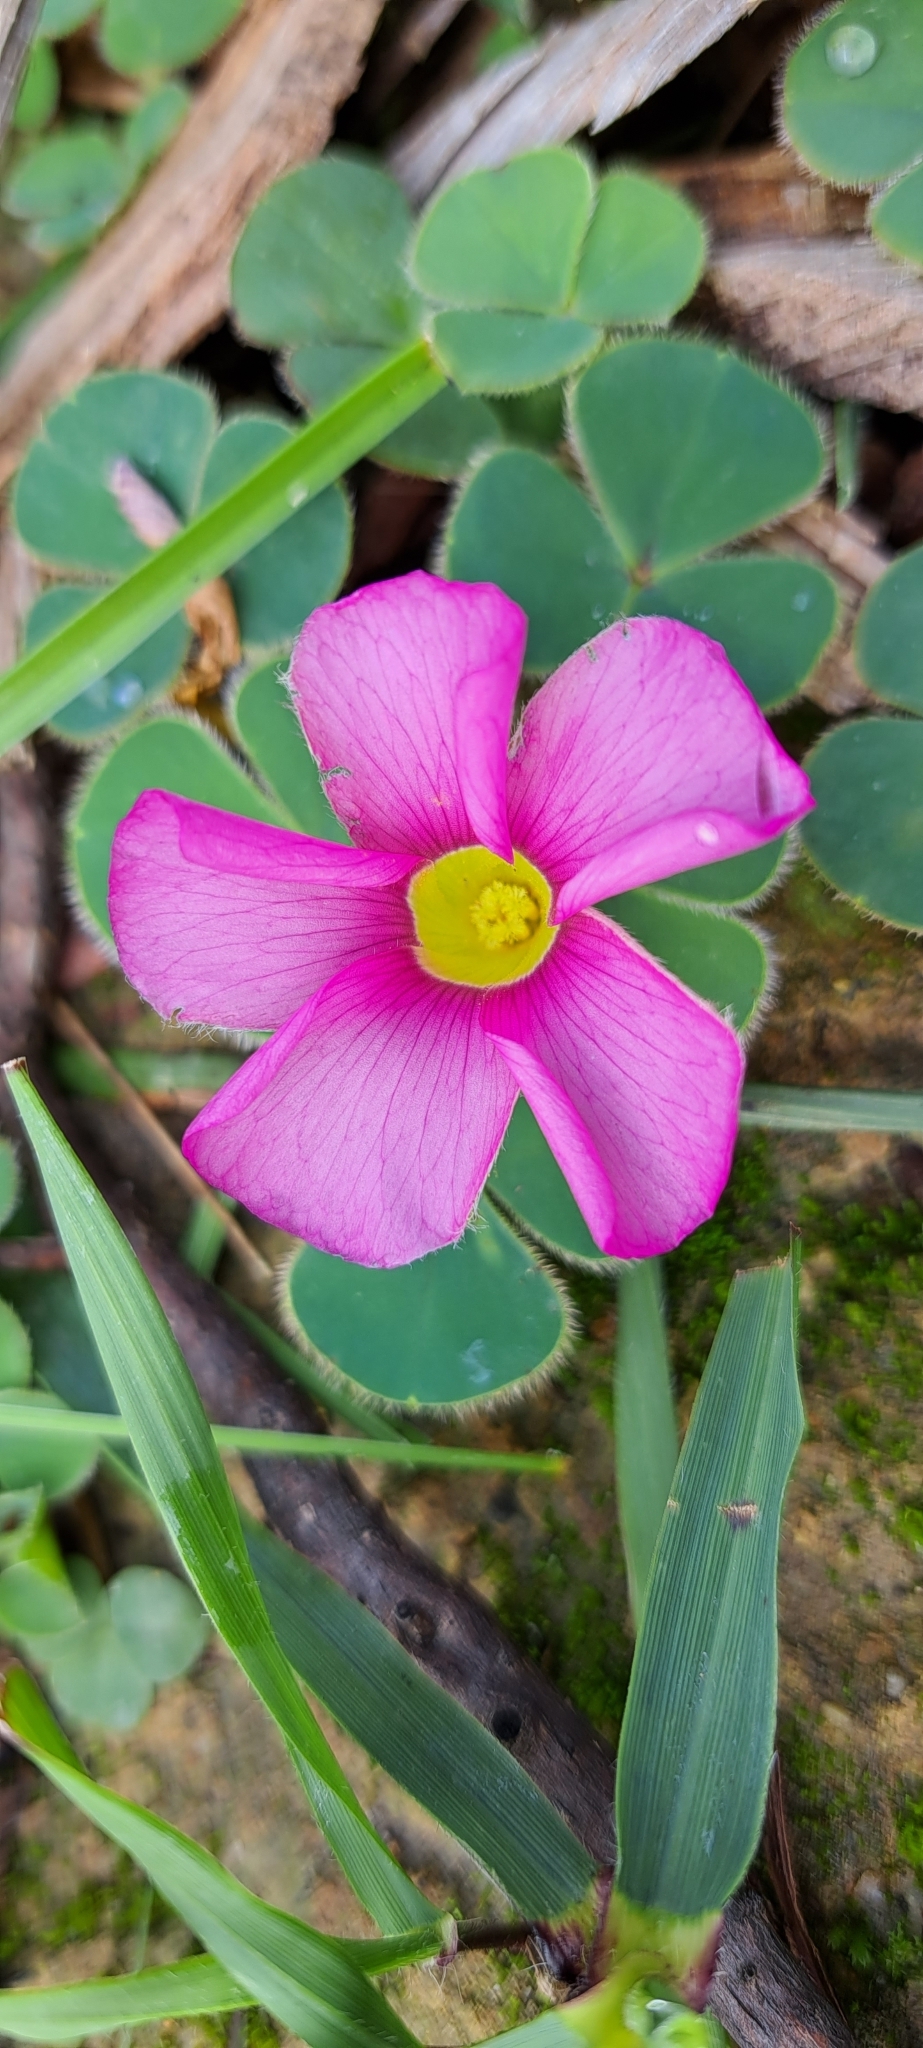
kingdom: Plantae
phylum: Tracheophyta
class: Magnoliopsida
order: Oxalidales
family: Oxalidaceae
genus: Oxalis
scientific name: Oxalis purpurea
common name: Purple woodsorrel
